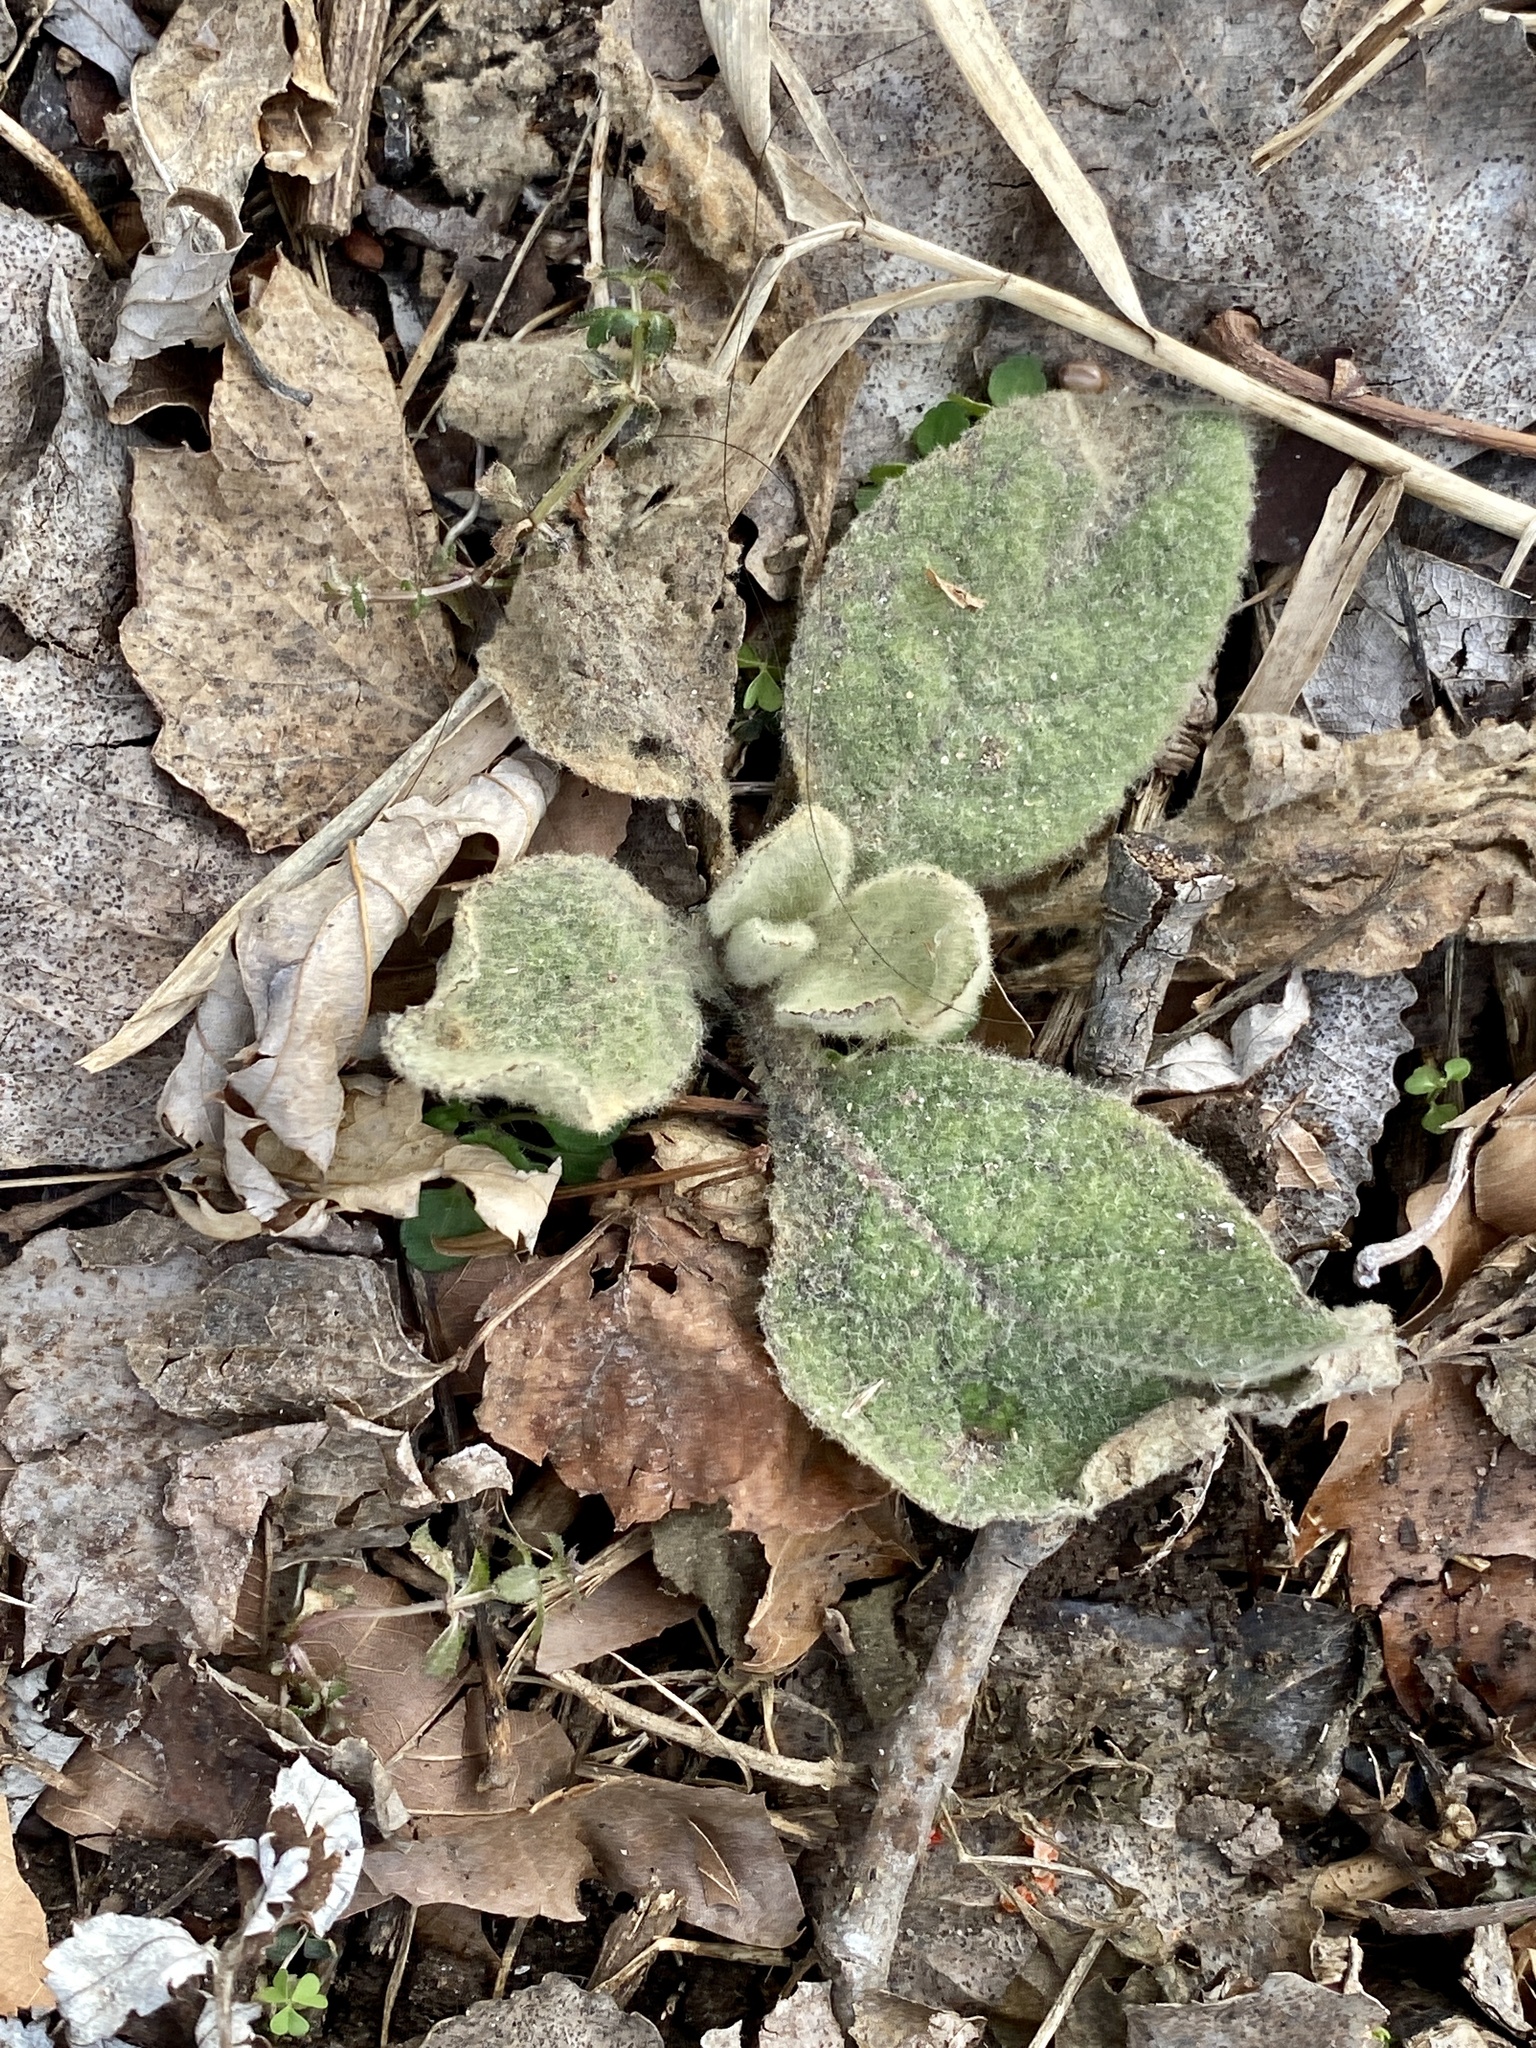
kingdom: Plantae
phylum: Tracheophyta
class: Magnoliopsida
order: Lamiales
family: Scrophulariaceae
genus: Verbascum
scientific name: Verbascum thapsus
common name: Common mullein
